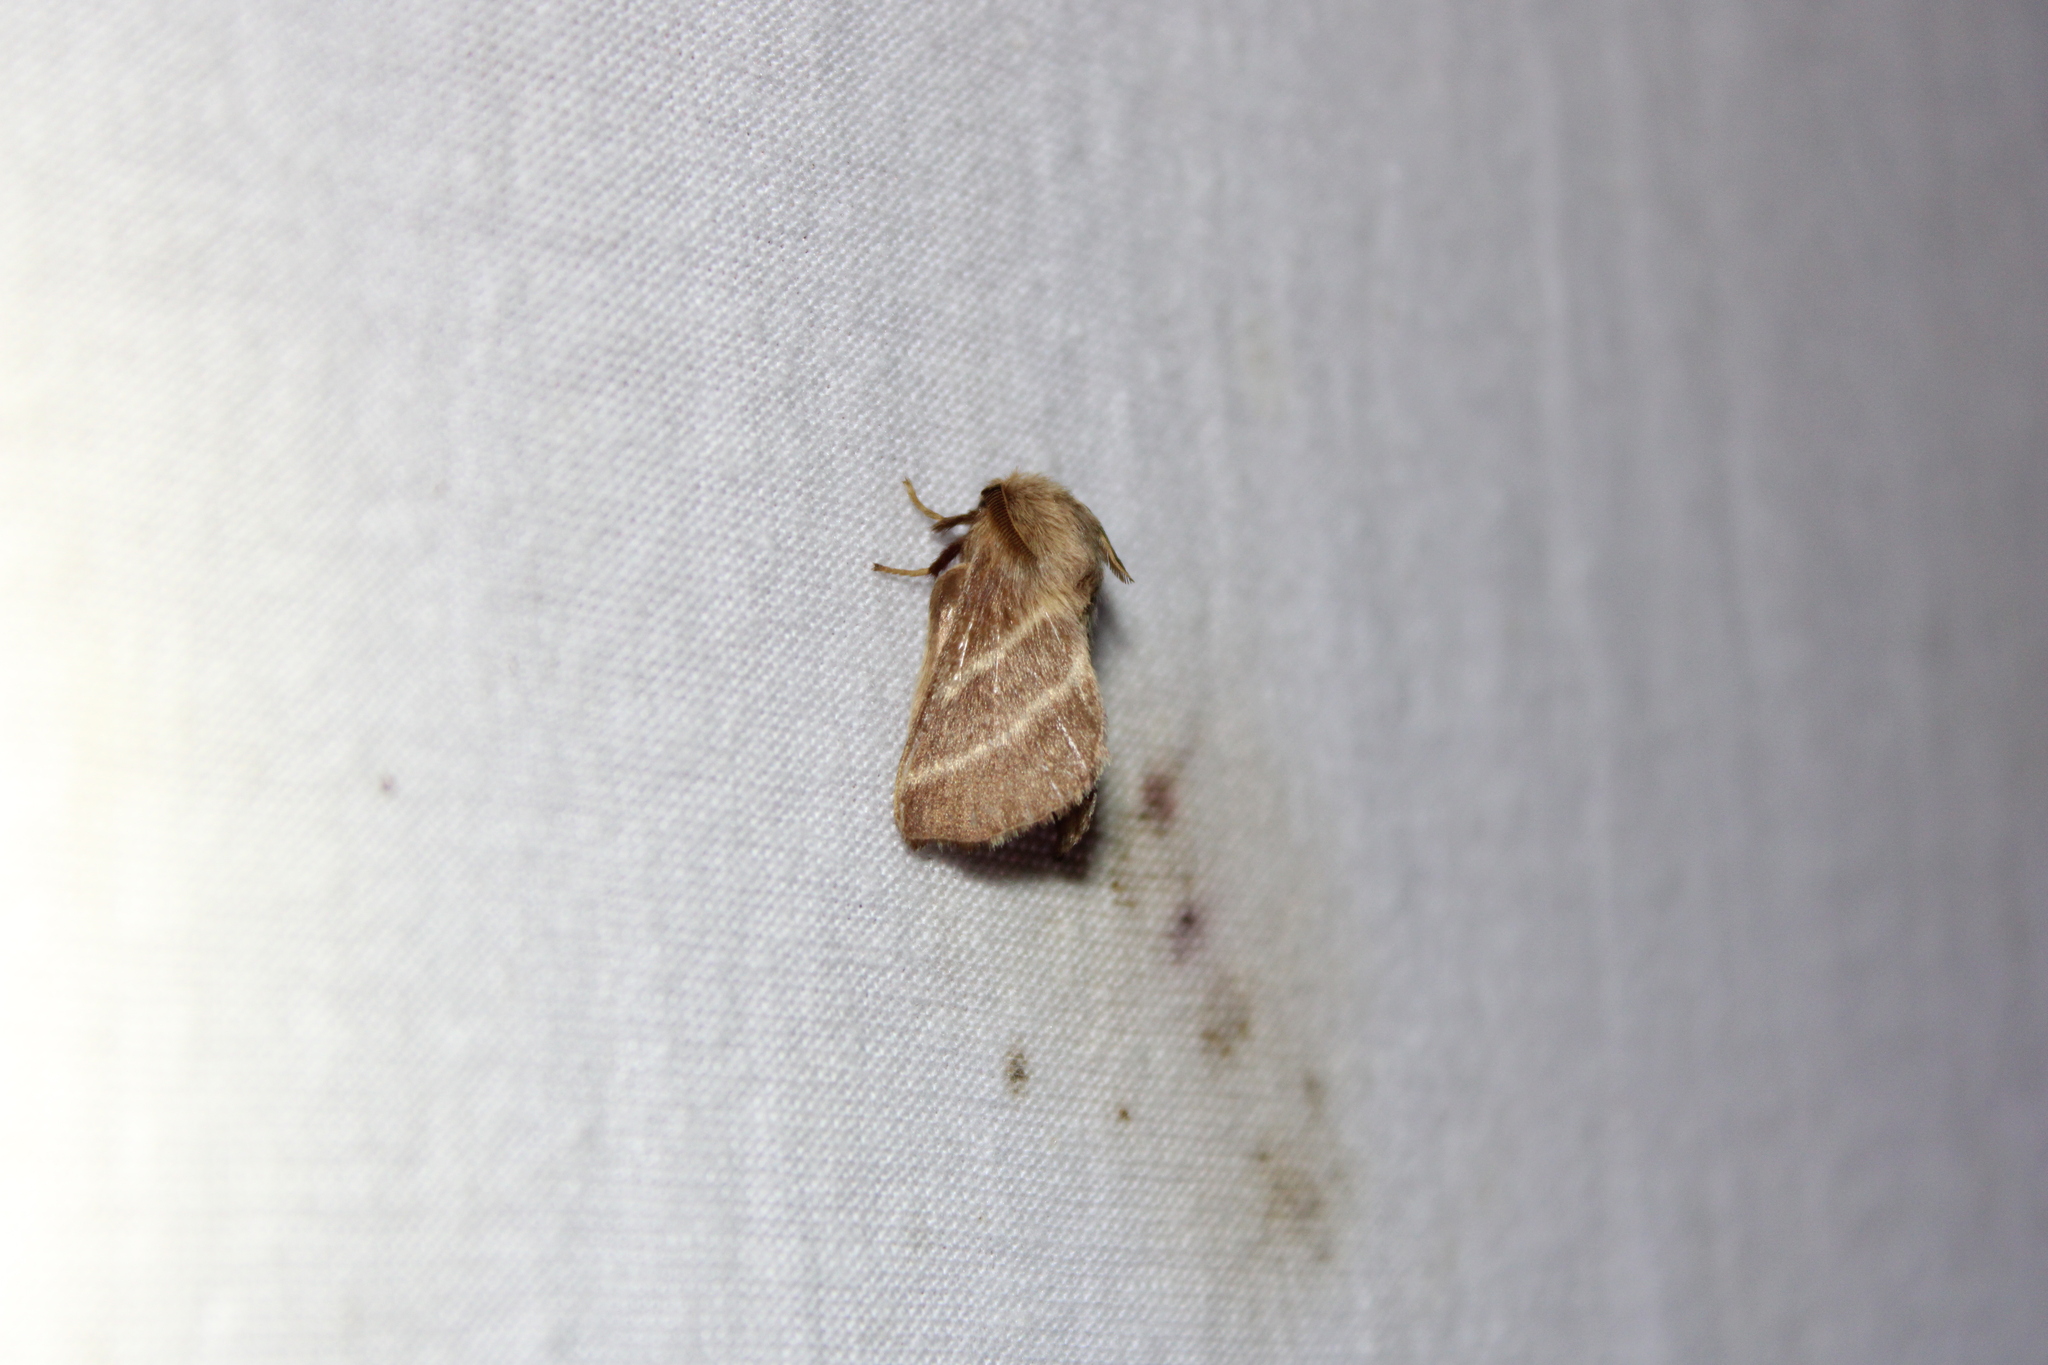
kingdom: Animalia
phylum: Arthropoda
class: Insecta
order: Lepidoptera
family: Lasiocampidae
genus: Malacosoma
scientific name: Malacosoma americana
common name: Eastern tent caterpillar moth
